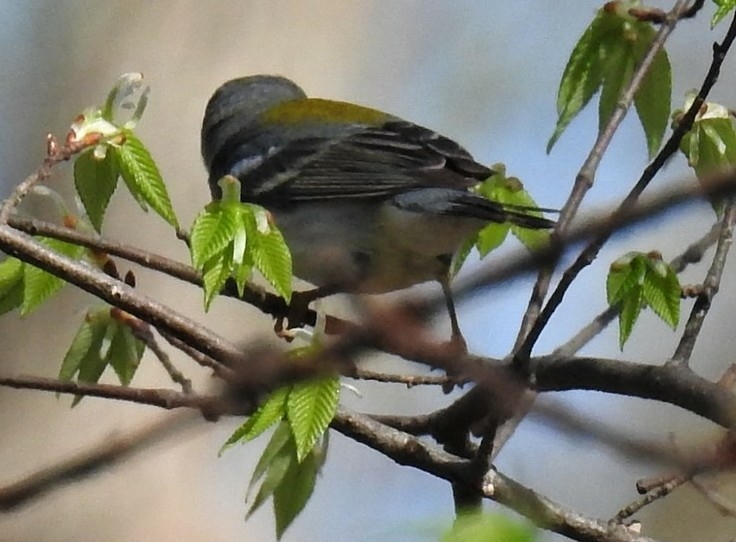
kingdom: Animalia
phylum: Chordata
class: Aves
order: Passeriformes
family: Parulidae
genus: Setophaga
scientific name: Setophaga americana
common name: Northern parula
